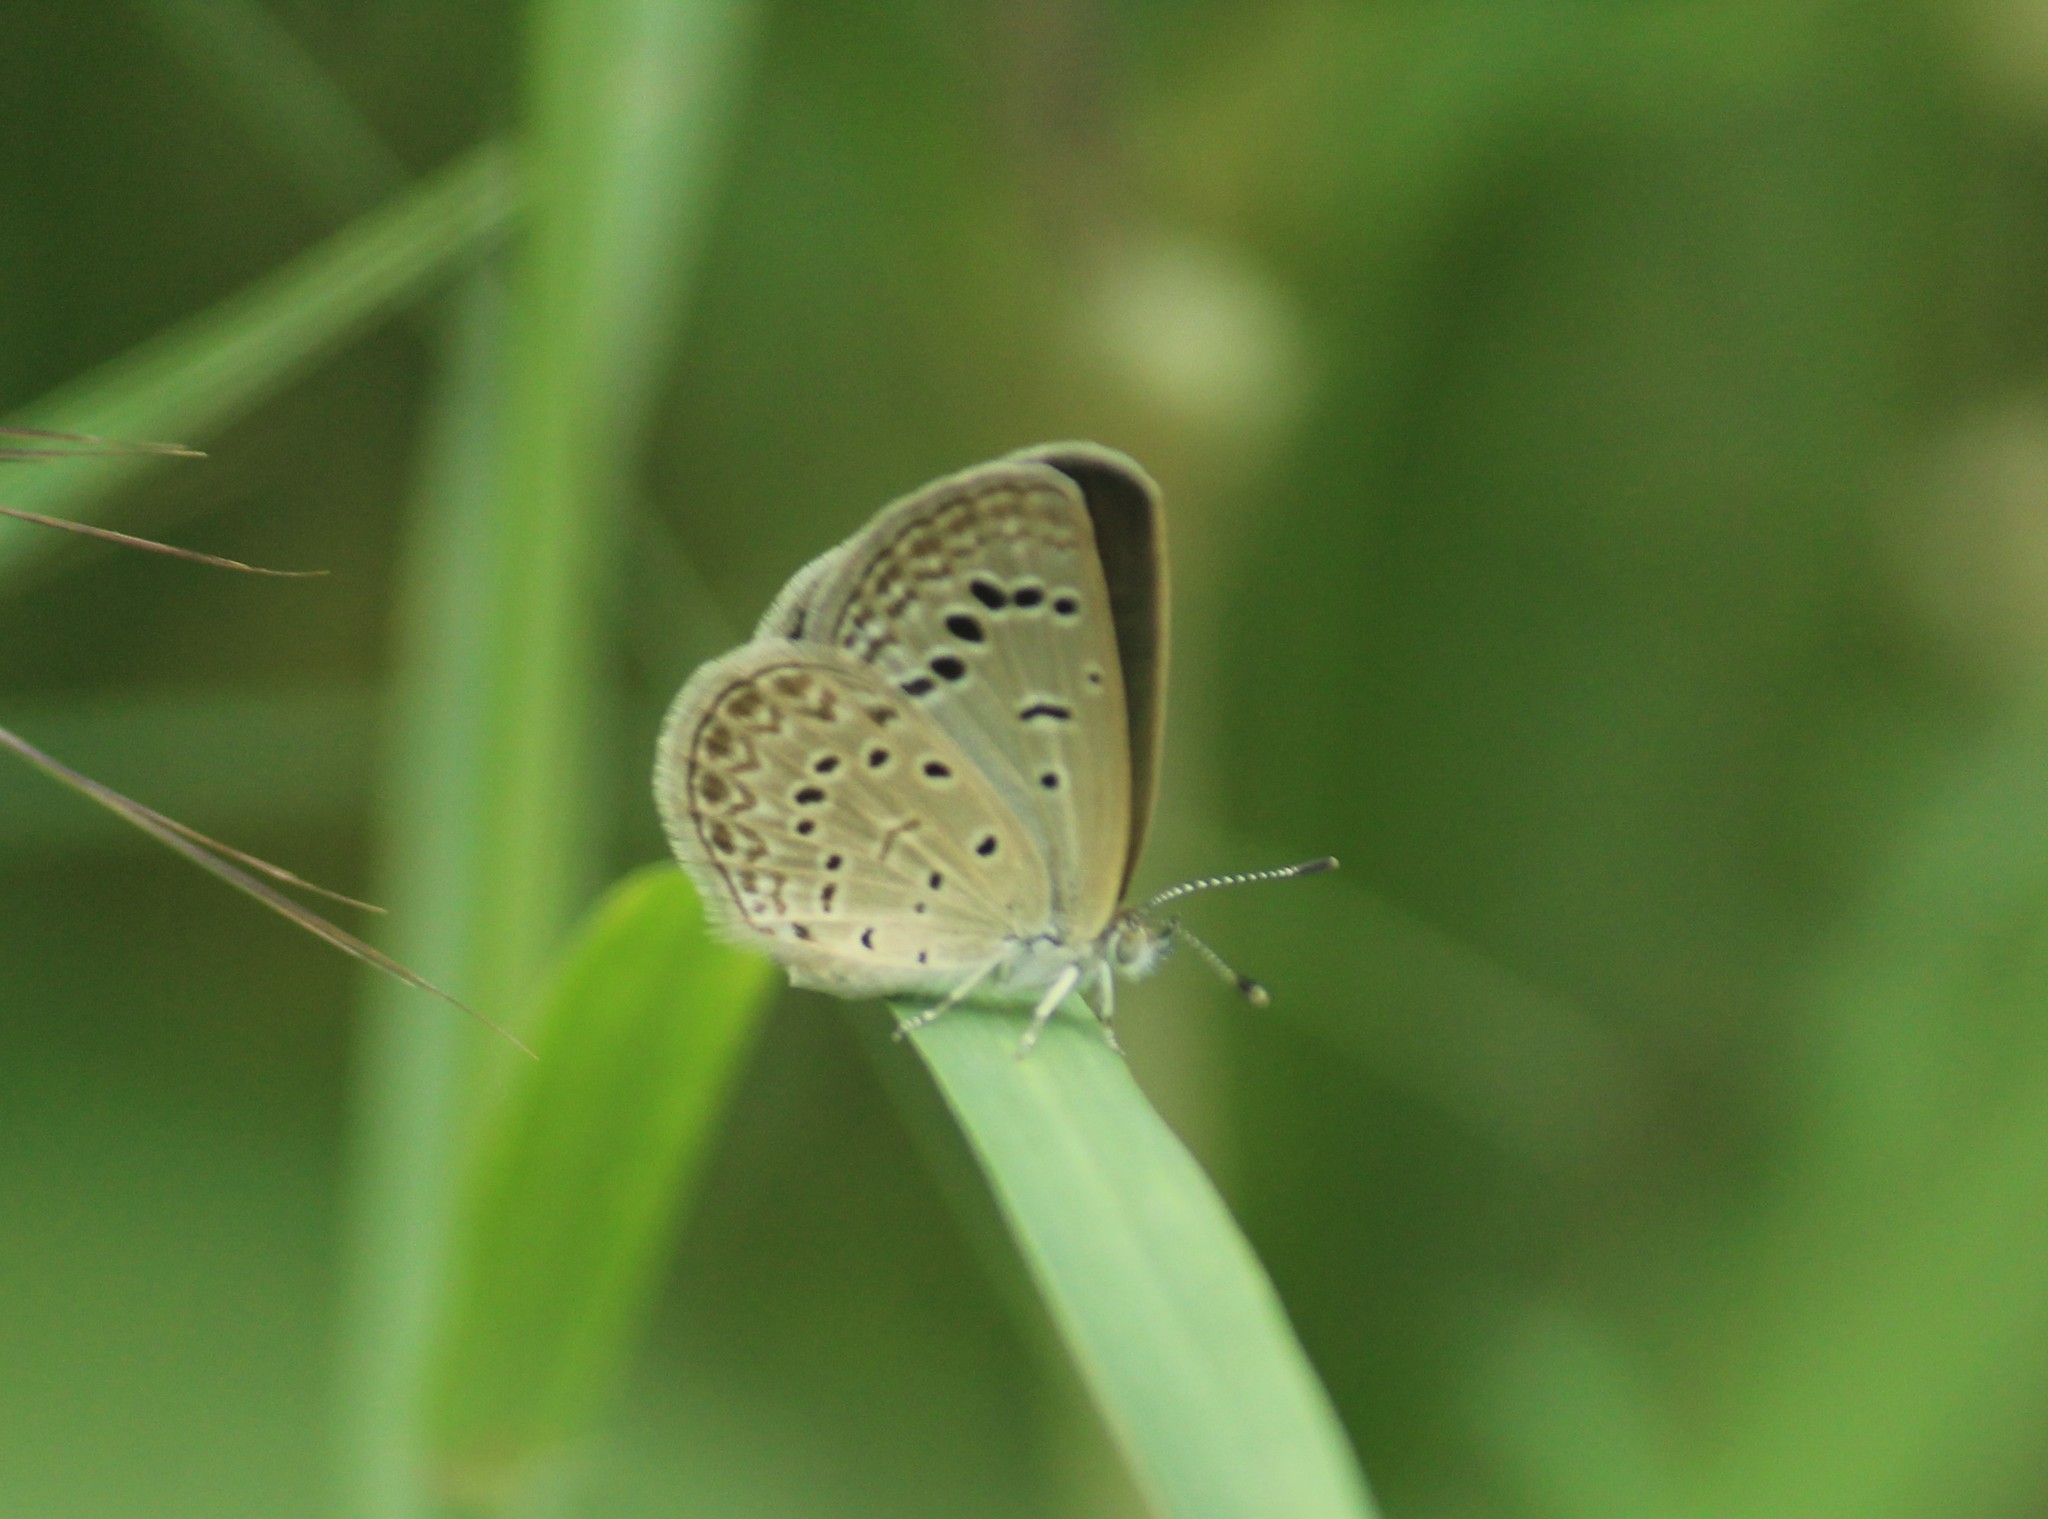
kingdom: Animalia
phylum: Arthropoda
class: Insecta
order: Lepidoptera
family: Lycaenidae
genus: Zizeeria
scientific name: Zizeeria karsandra
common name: Dark grass blue
